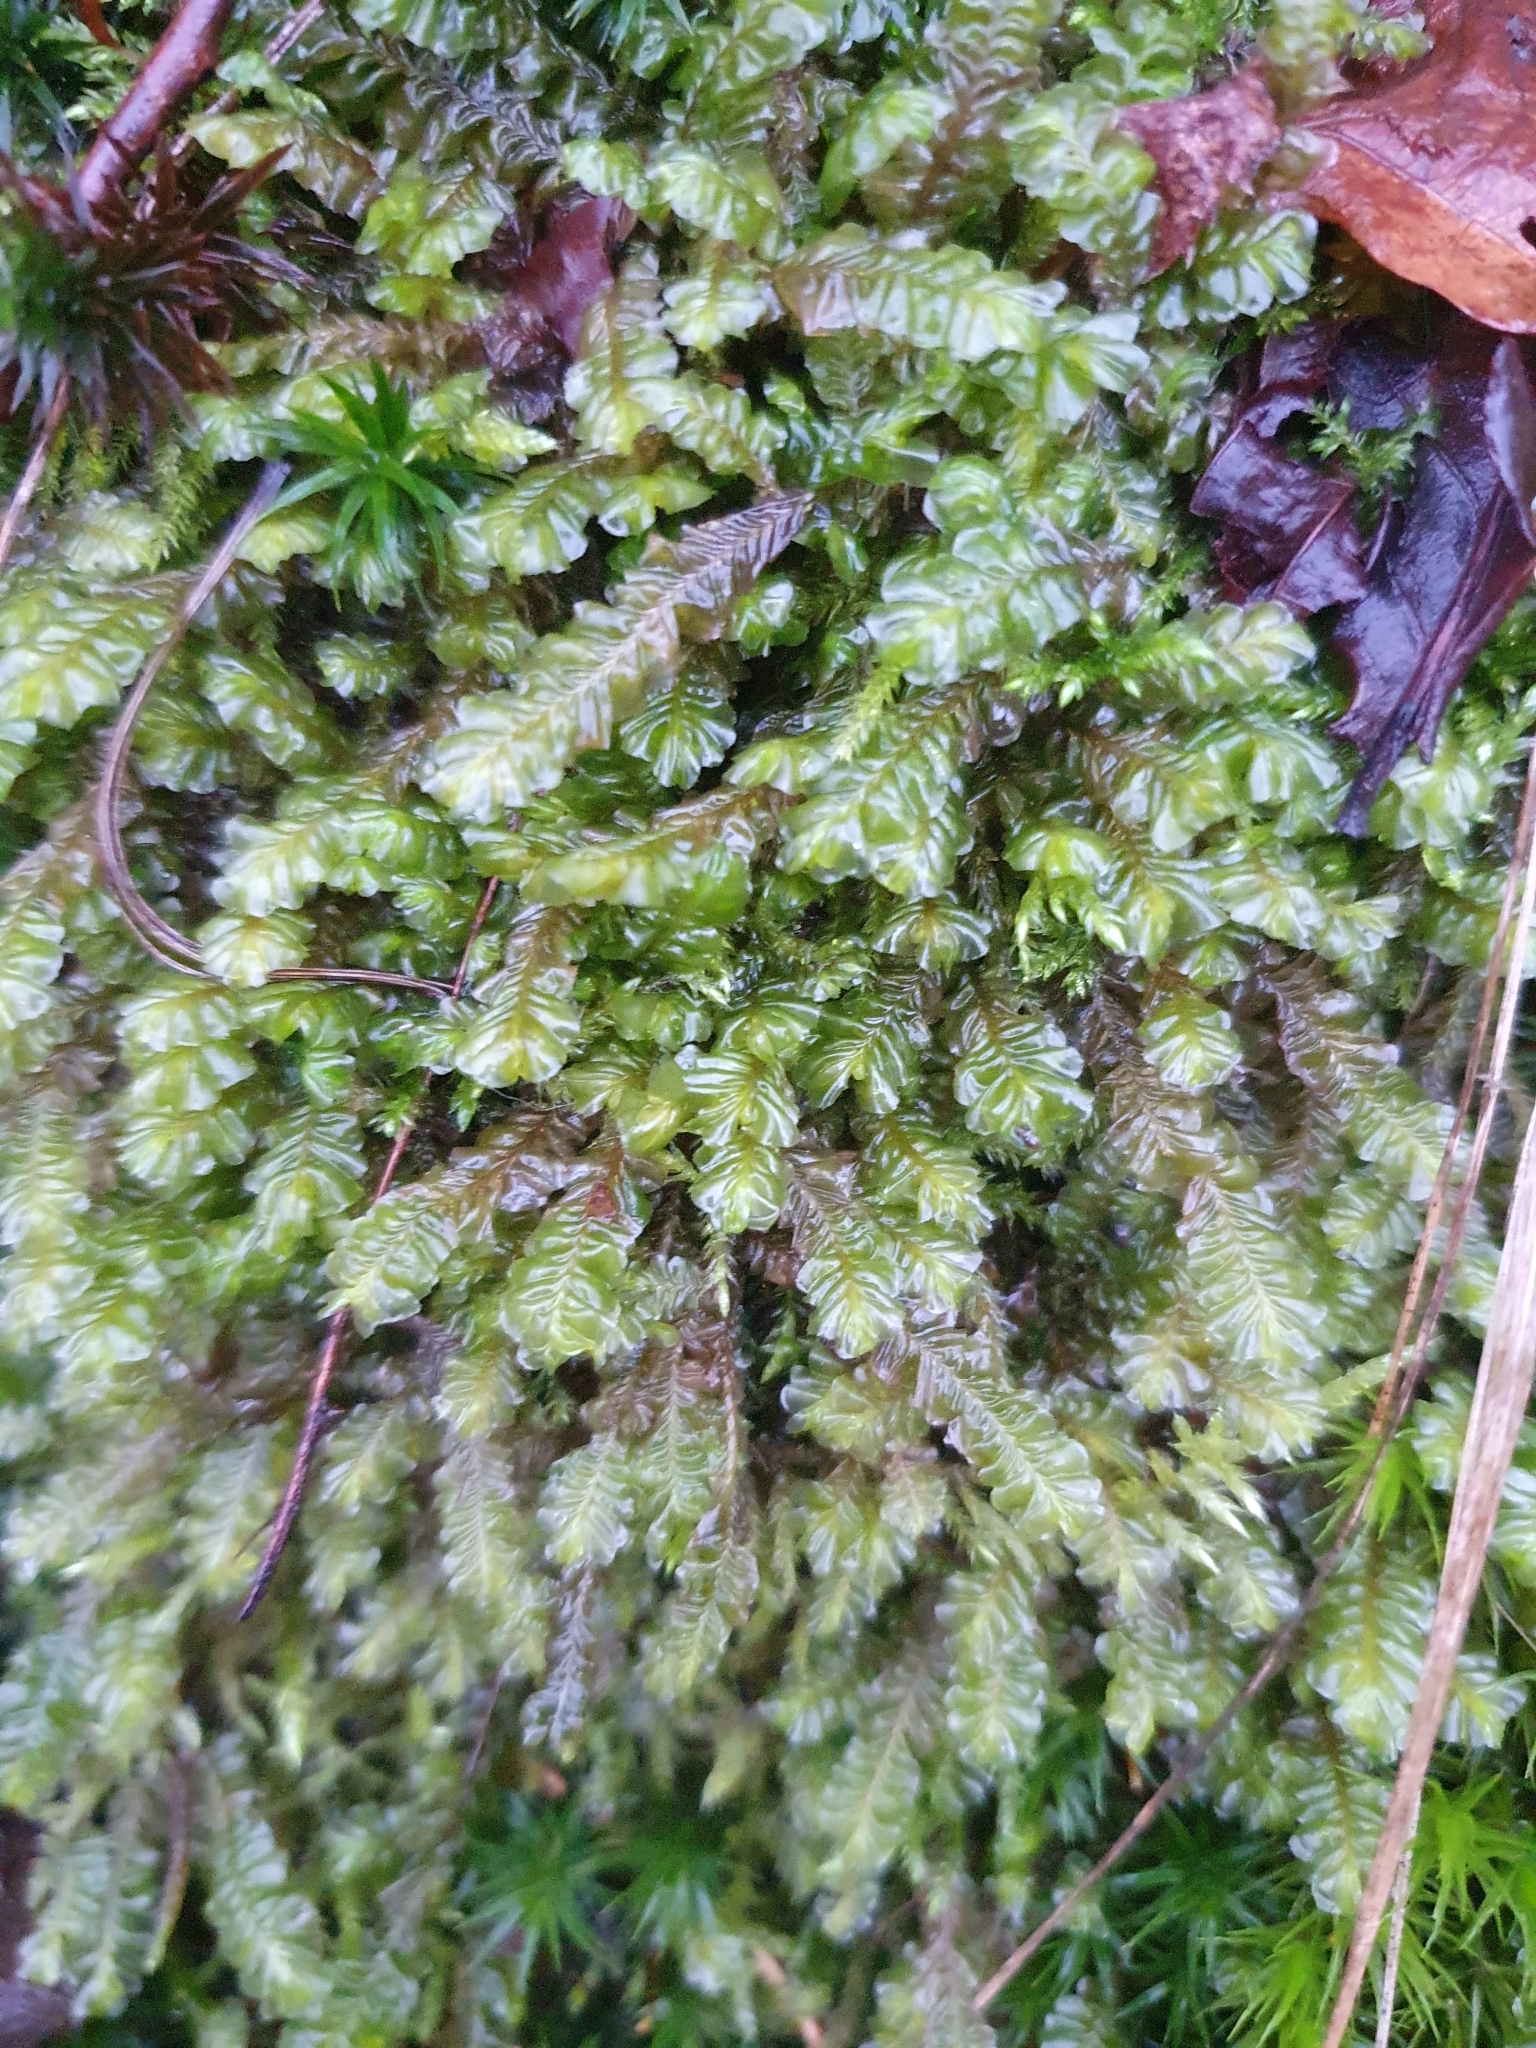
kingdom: Plantae
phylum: Marchantiophyta
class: Jungermanniopsida
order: Jungermanniales
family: Plagiochilaceae
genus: Plagiochila
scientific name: Plagiochila asplenioides
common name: Greater featherwort
